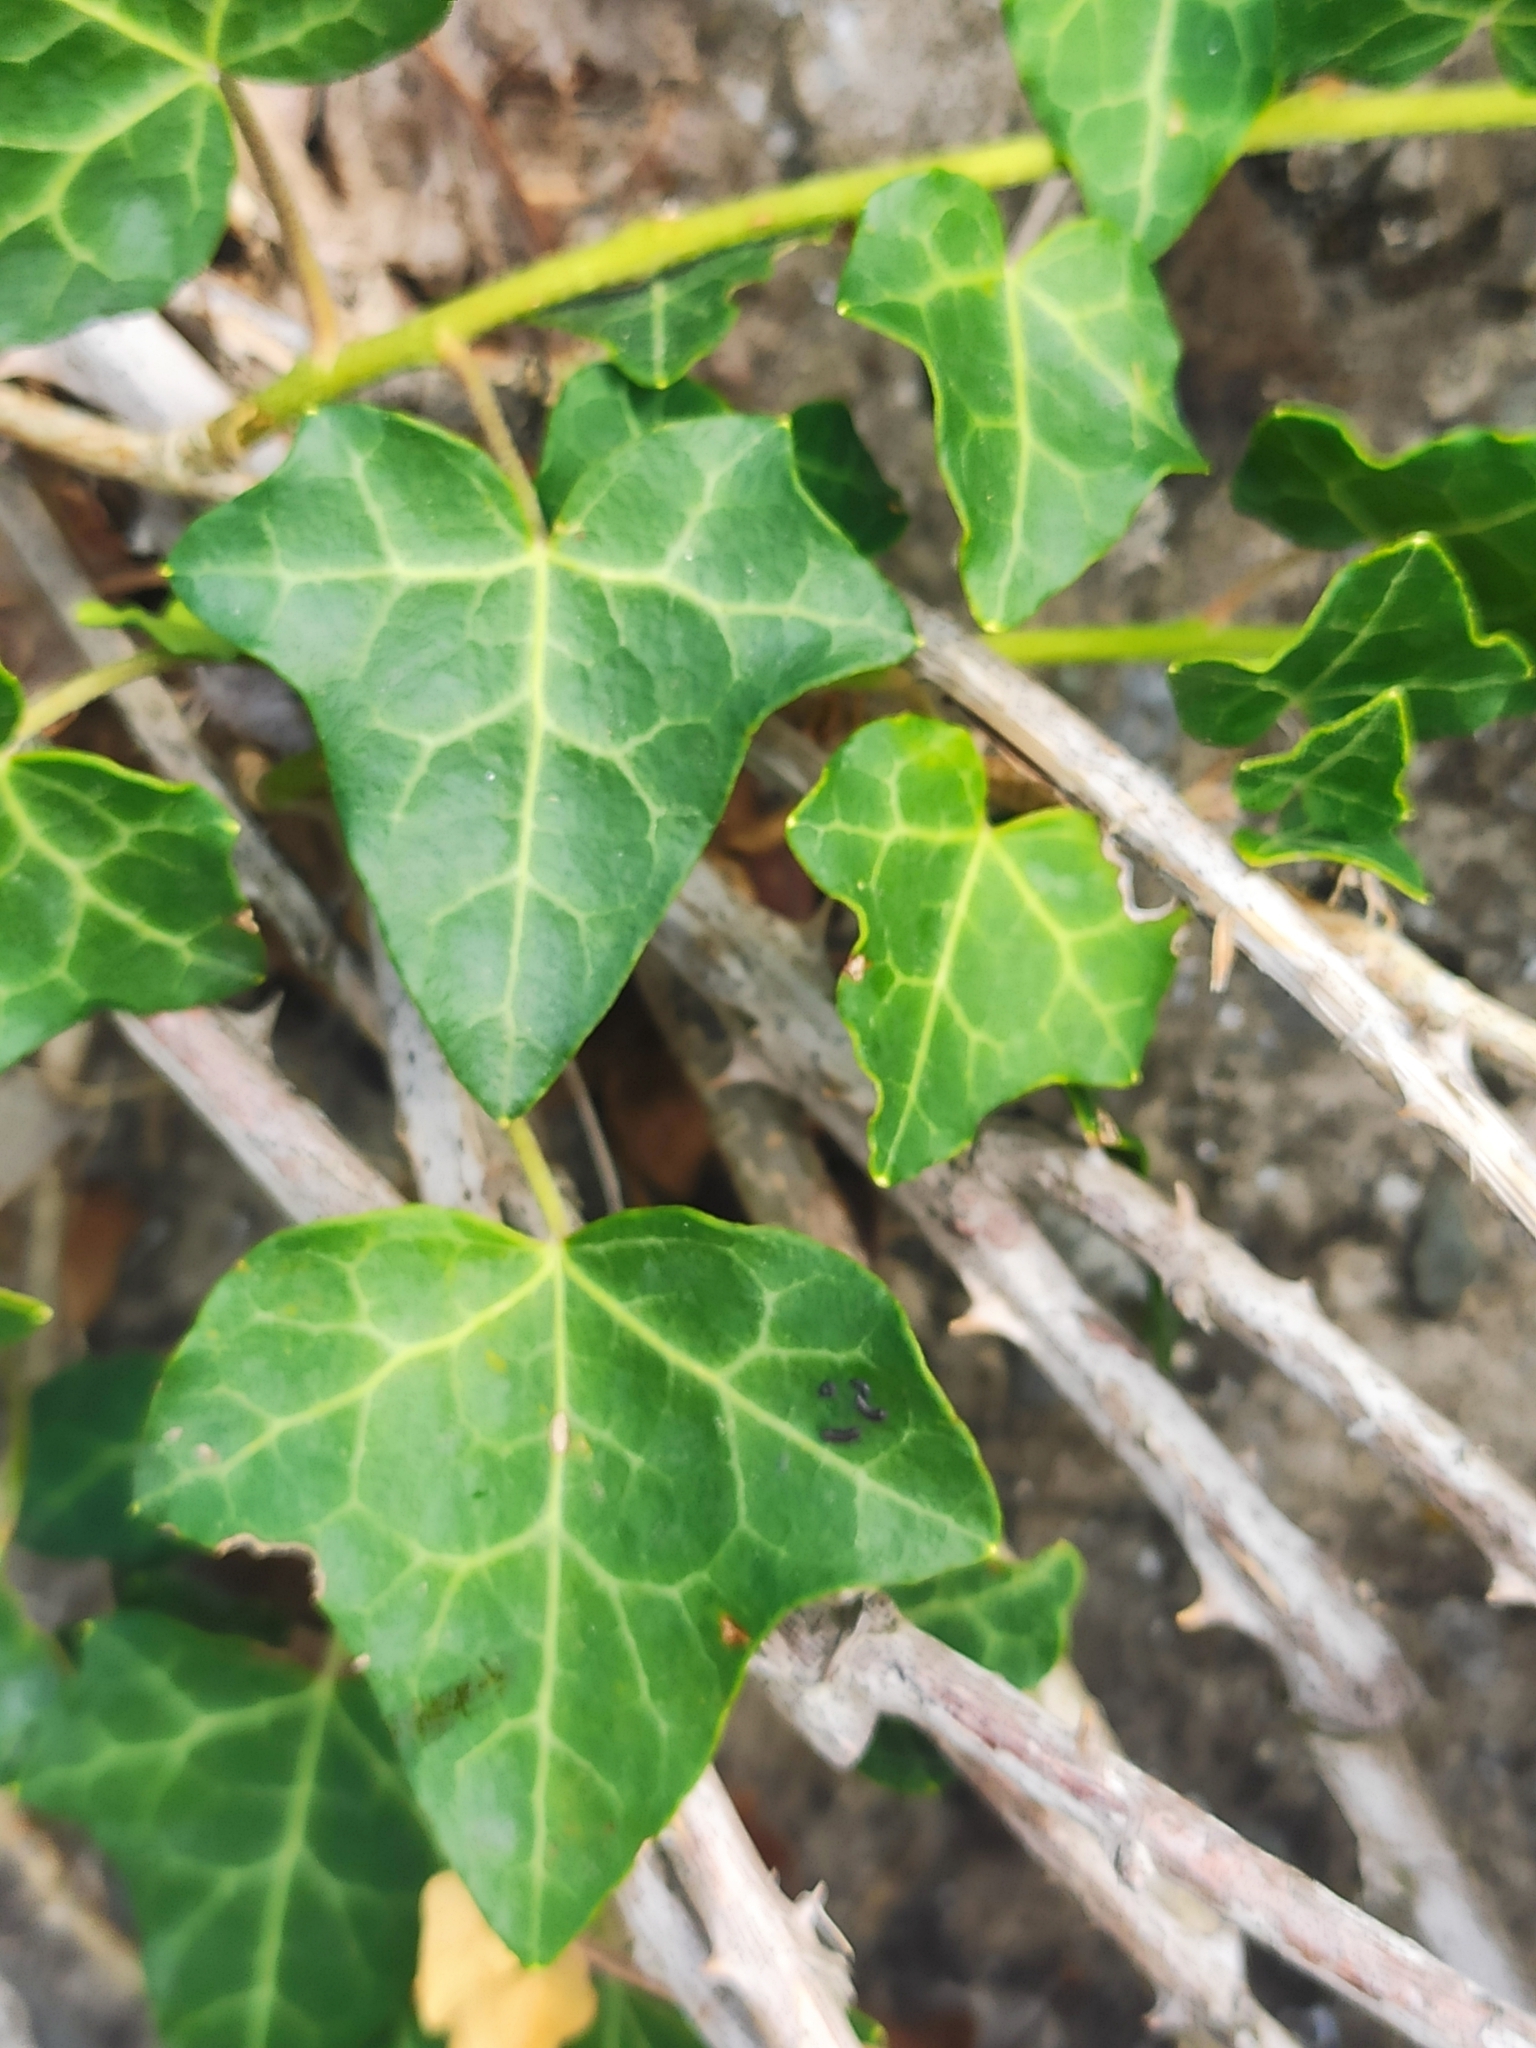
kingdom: Plantae
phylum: Tracheophyta
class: Magnoliopsida
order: Apiales
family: Araliaceae
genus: Hedera
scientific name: Hedera helix
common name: Ivy
